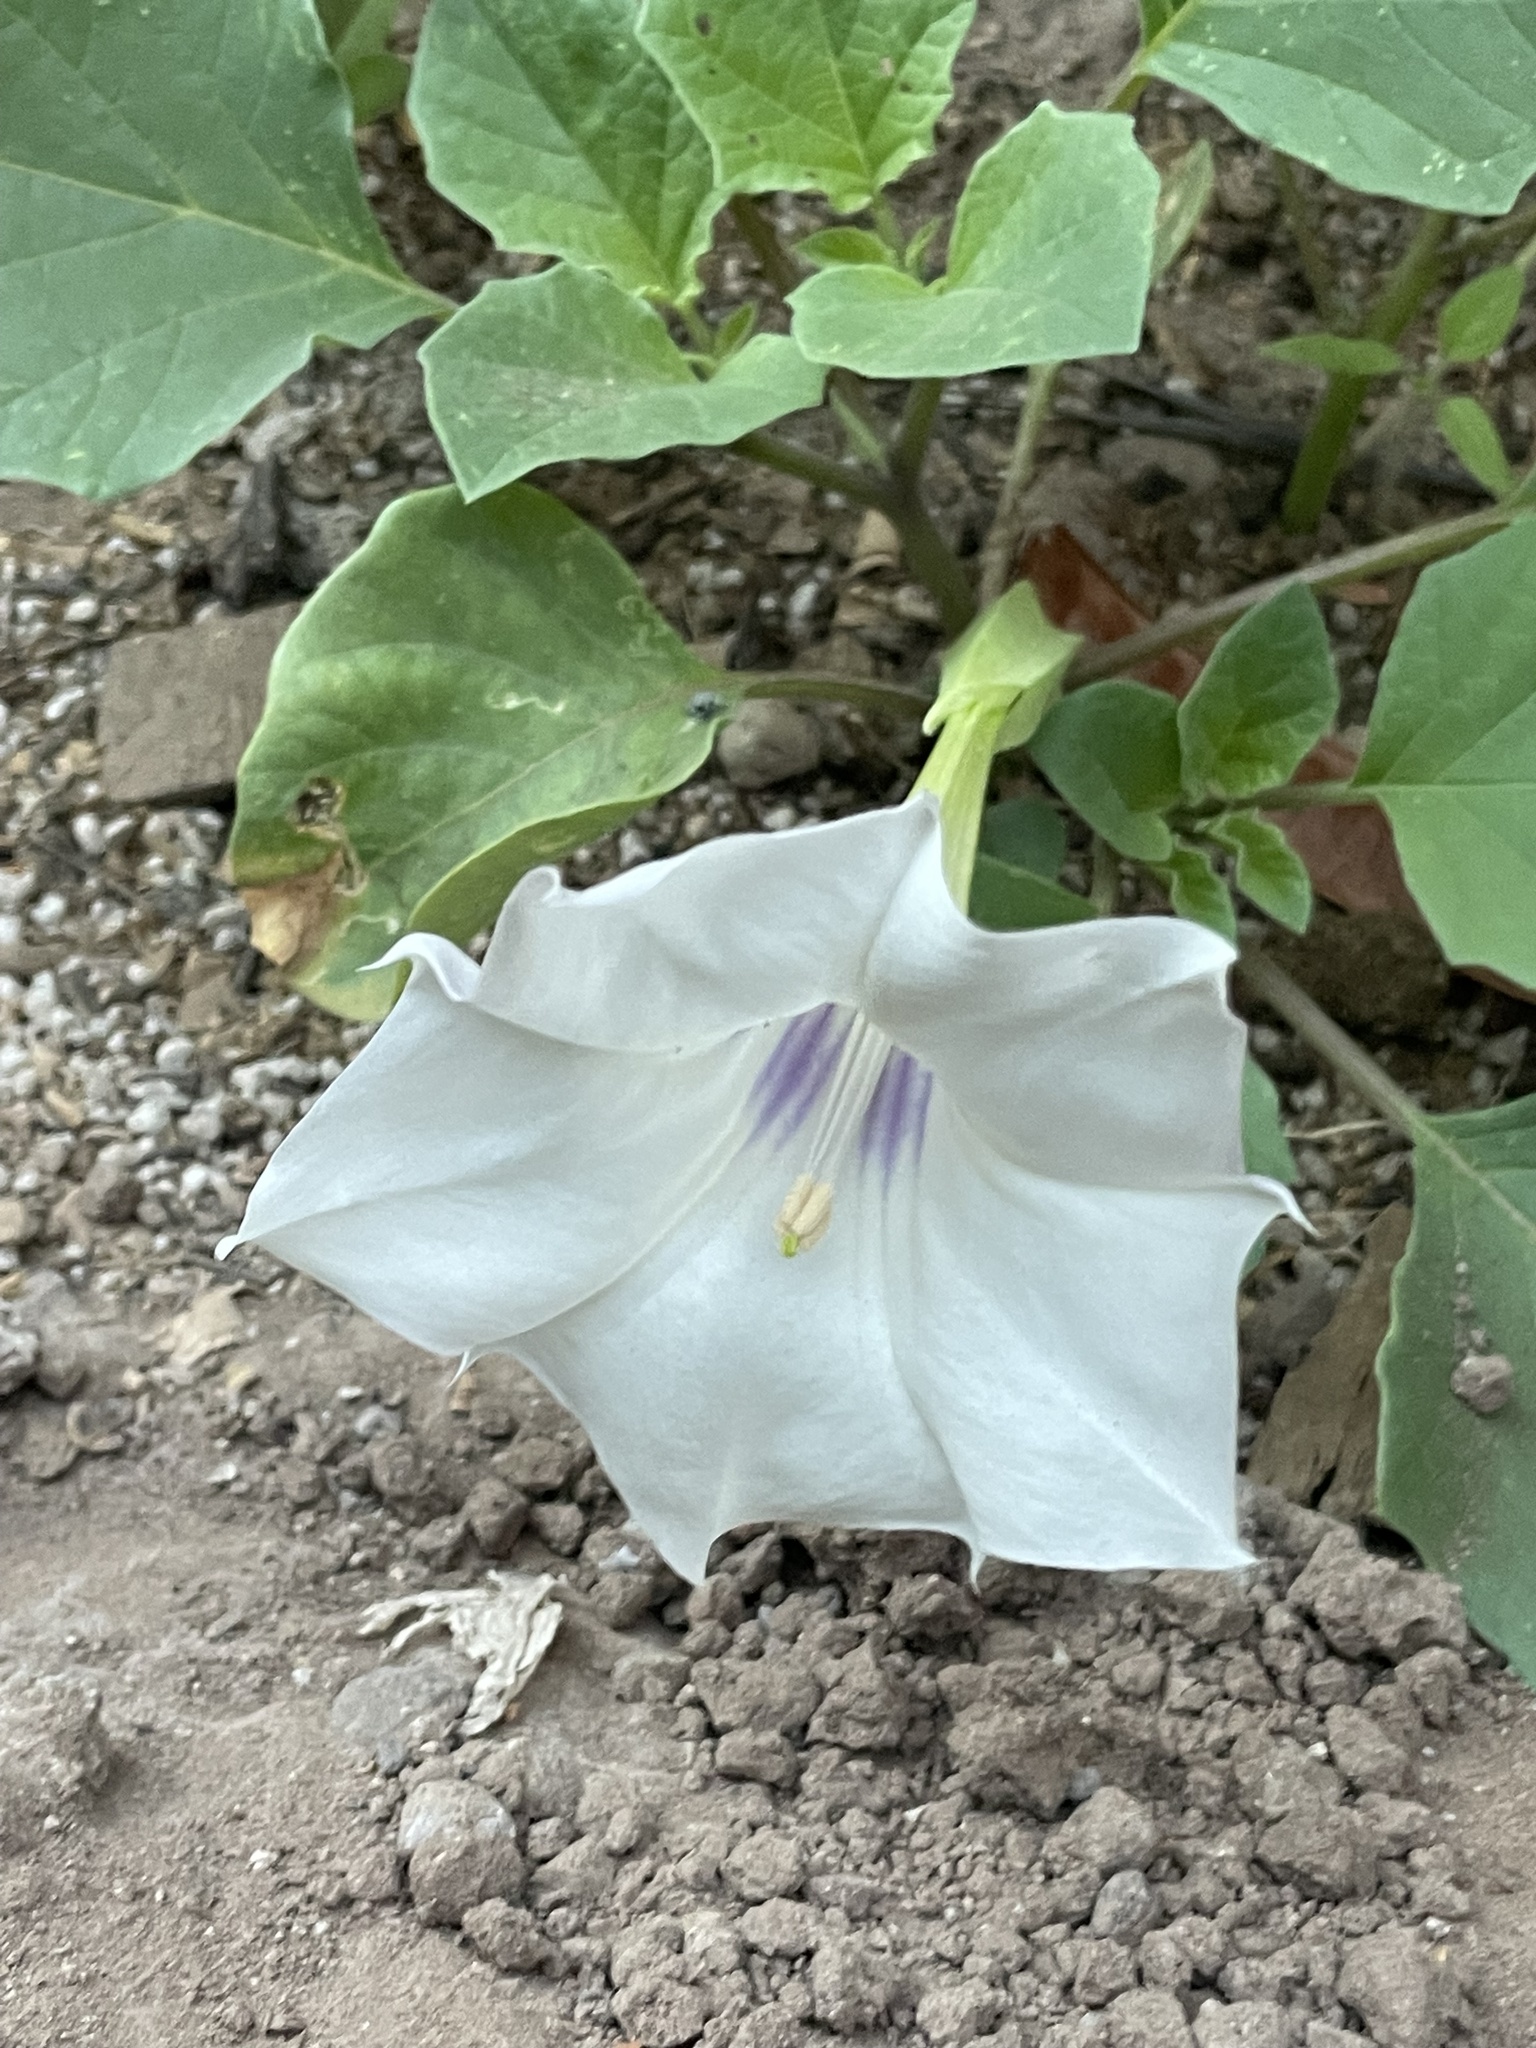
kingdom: Plantae
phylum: Tracheophyta
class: Magnoliopsida
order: Solanales
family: Solanaceae
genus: Datura
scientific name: Datura discolor
